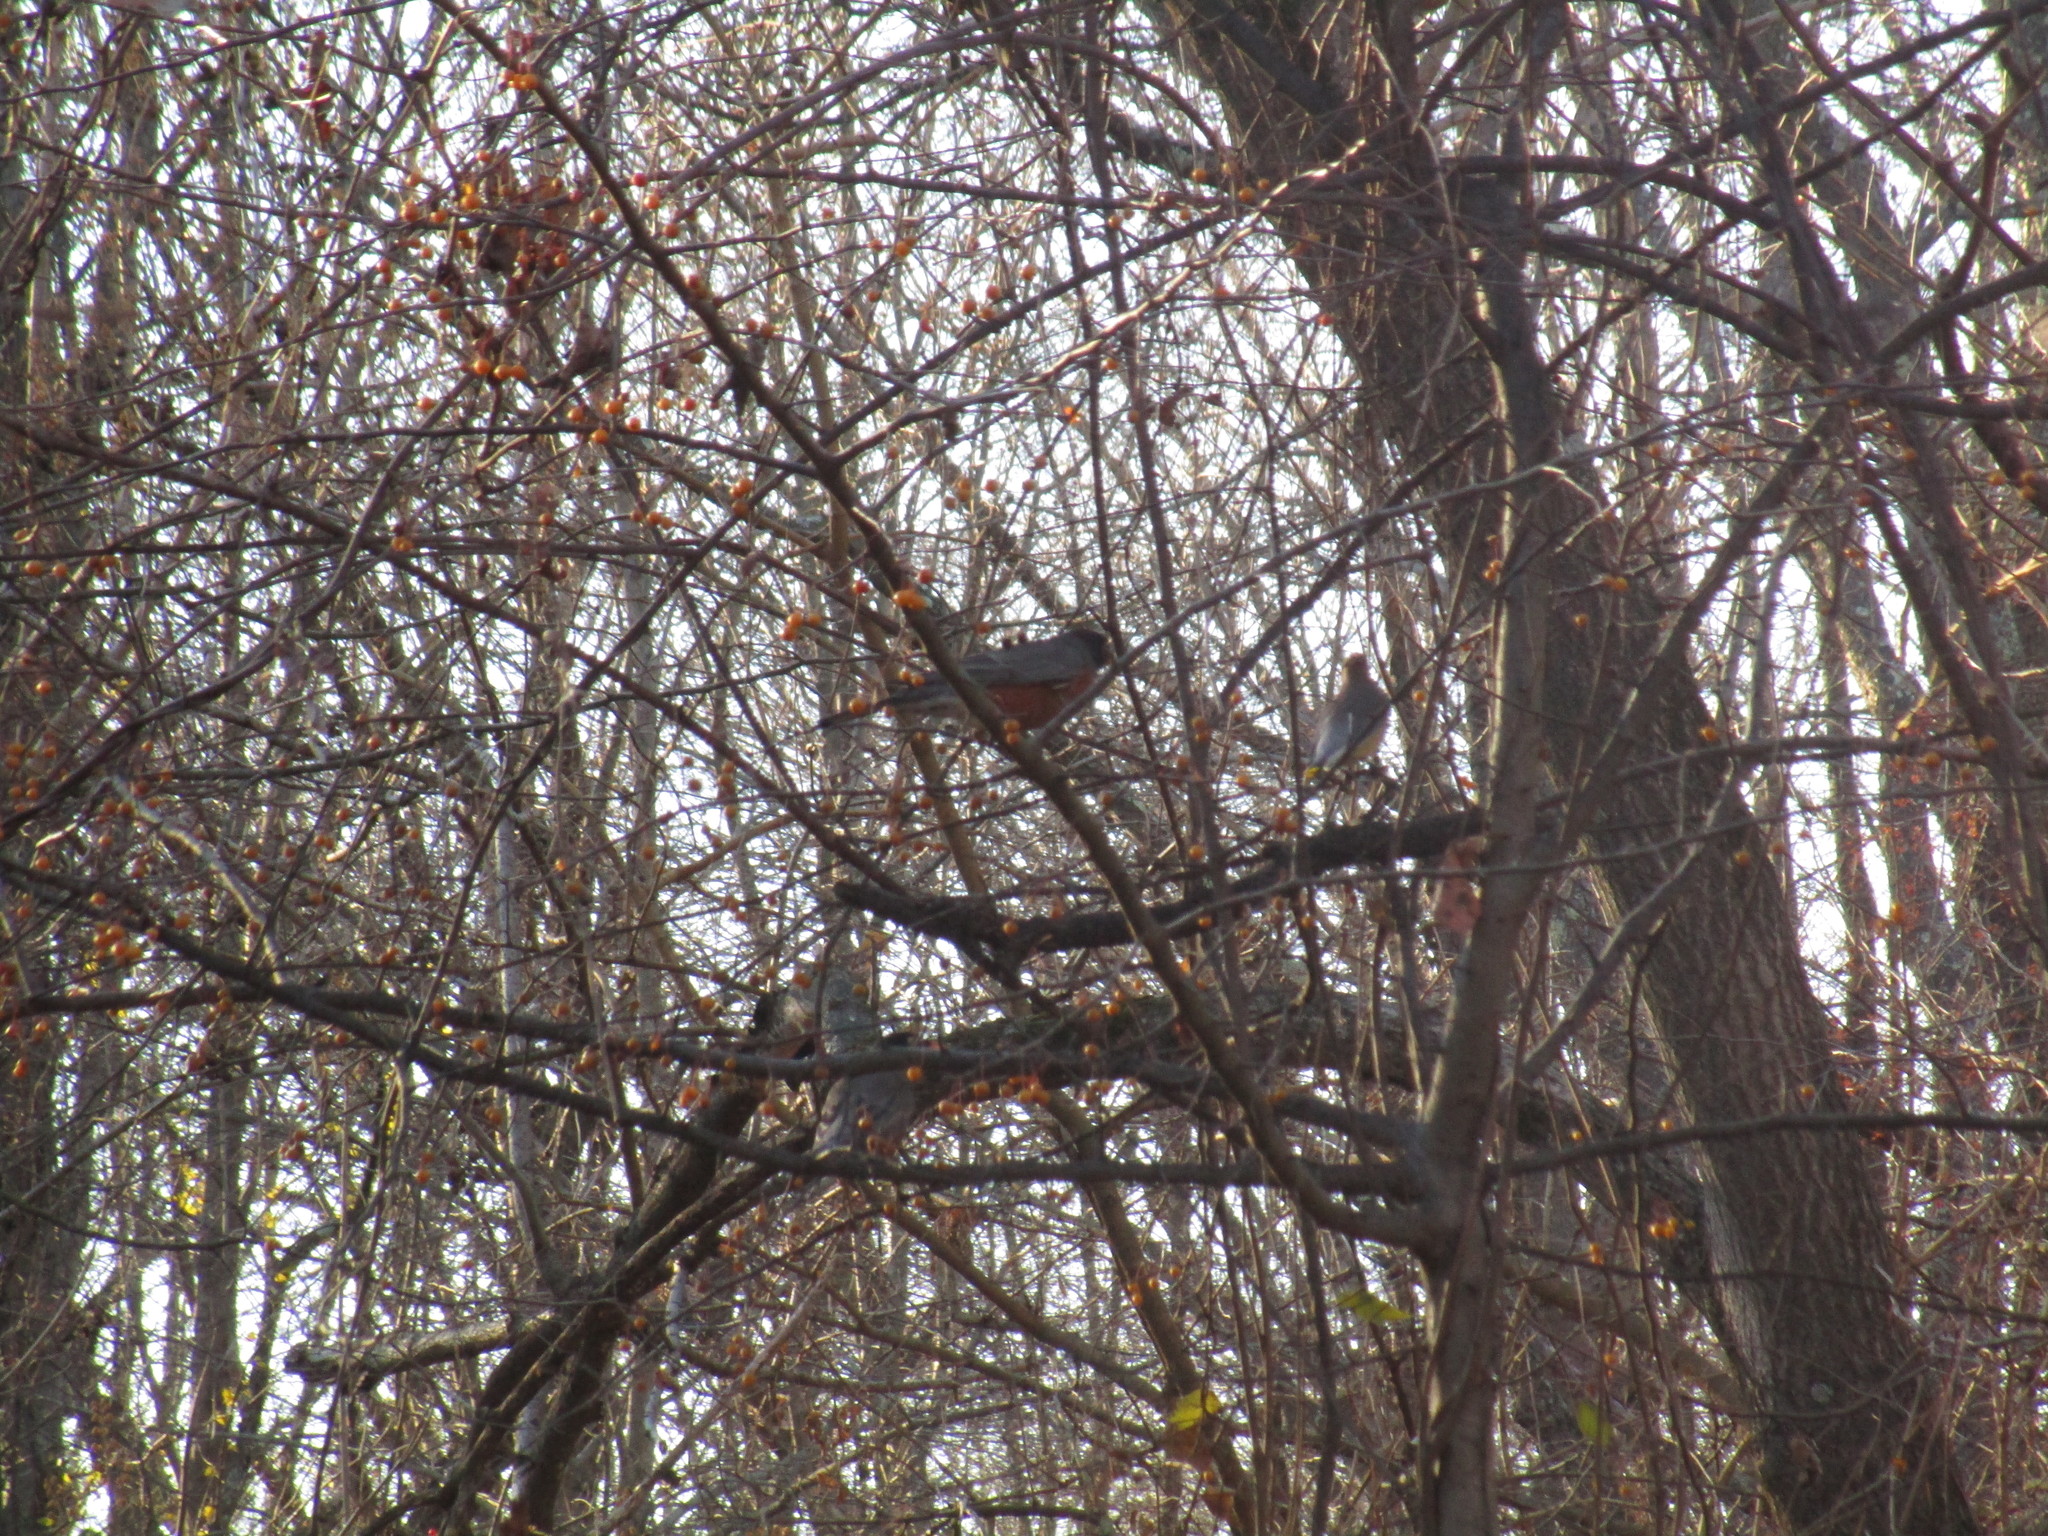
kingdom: Animalia
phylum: Chordata
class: Aves
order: Passeriformes
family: Turdidae
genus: Turdus
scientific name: Turdus migratorius
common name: American robin
